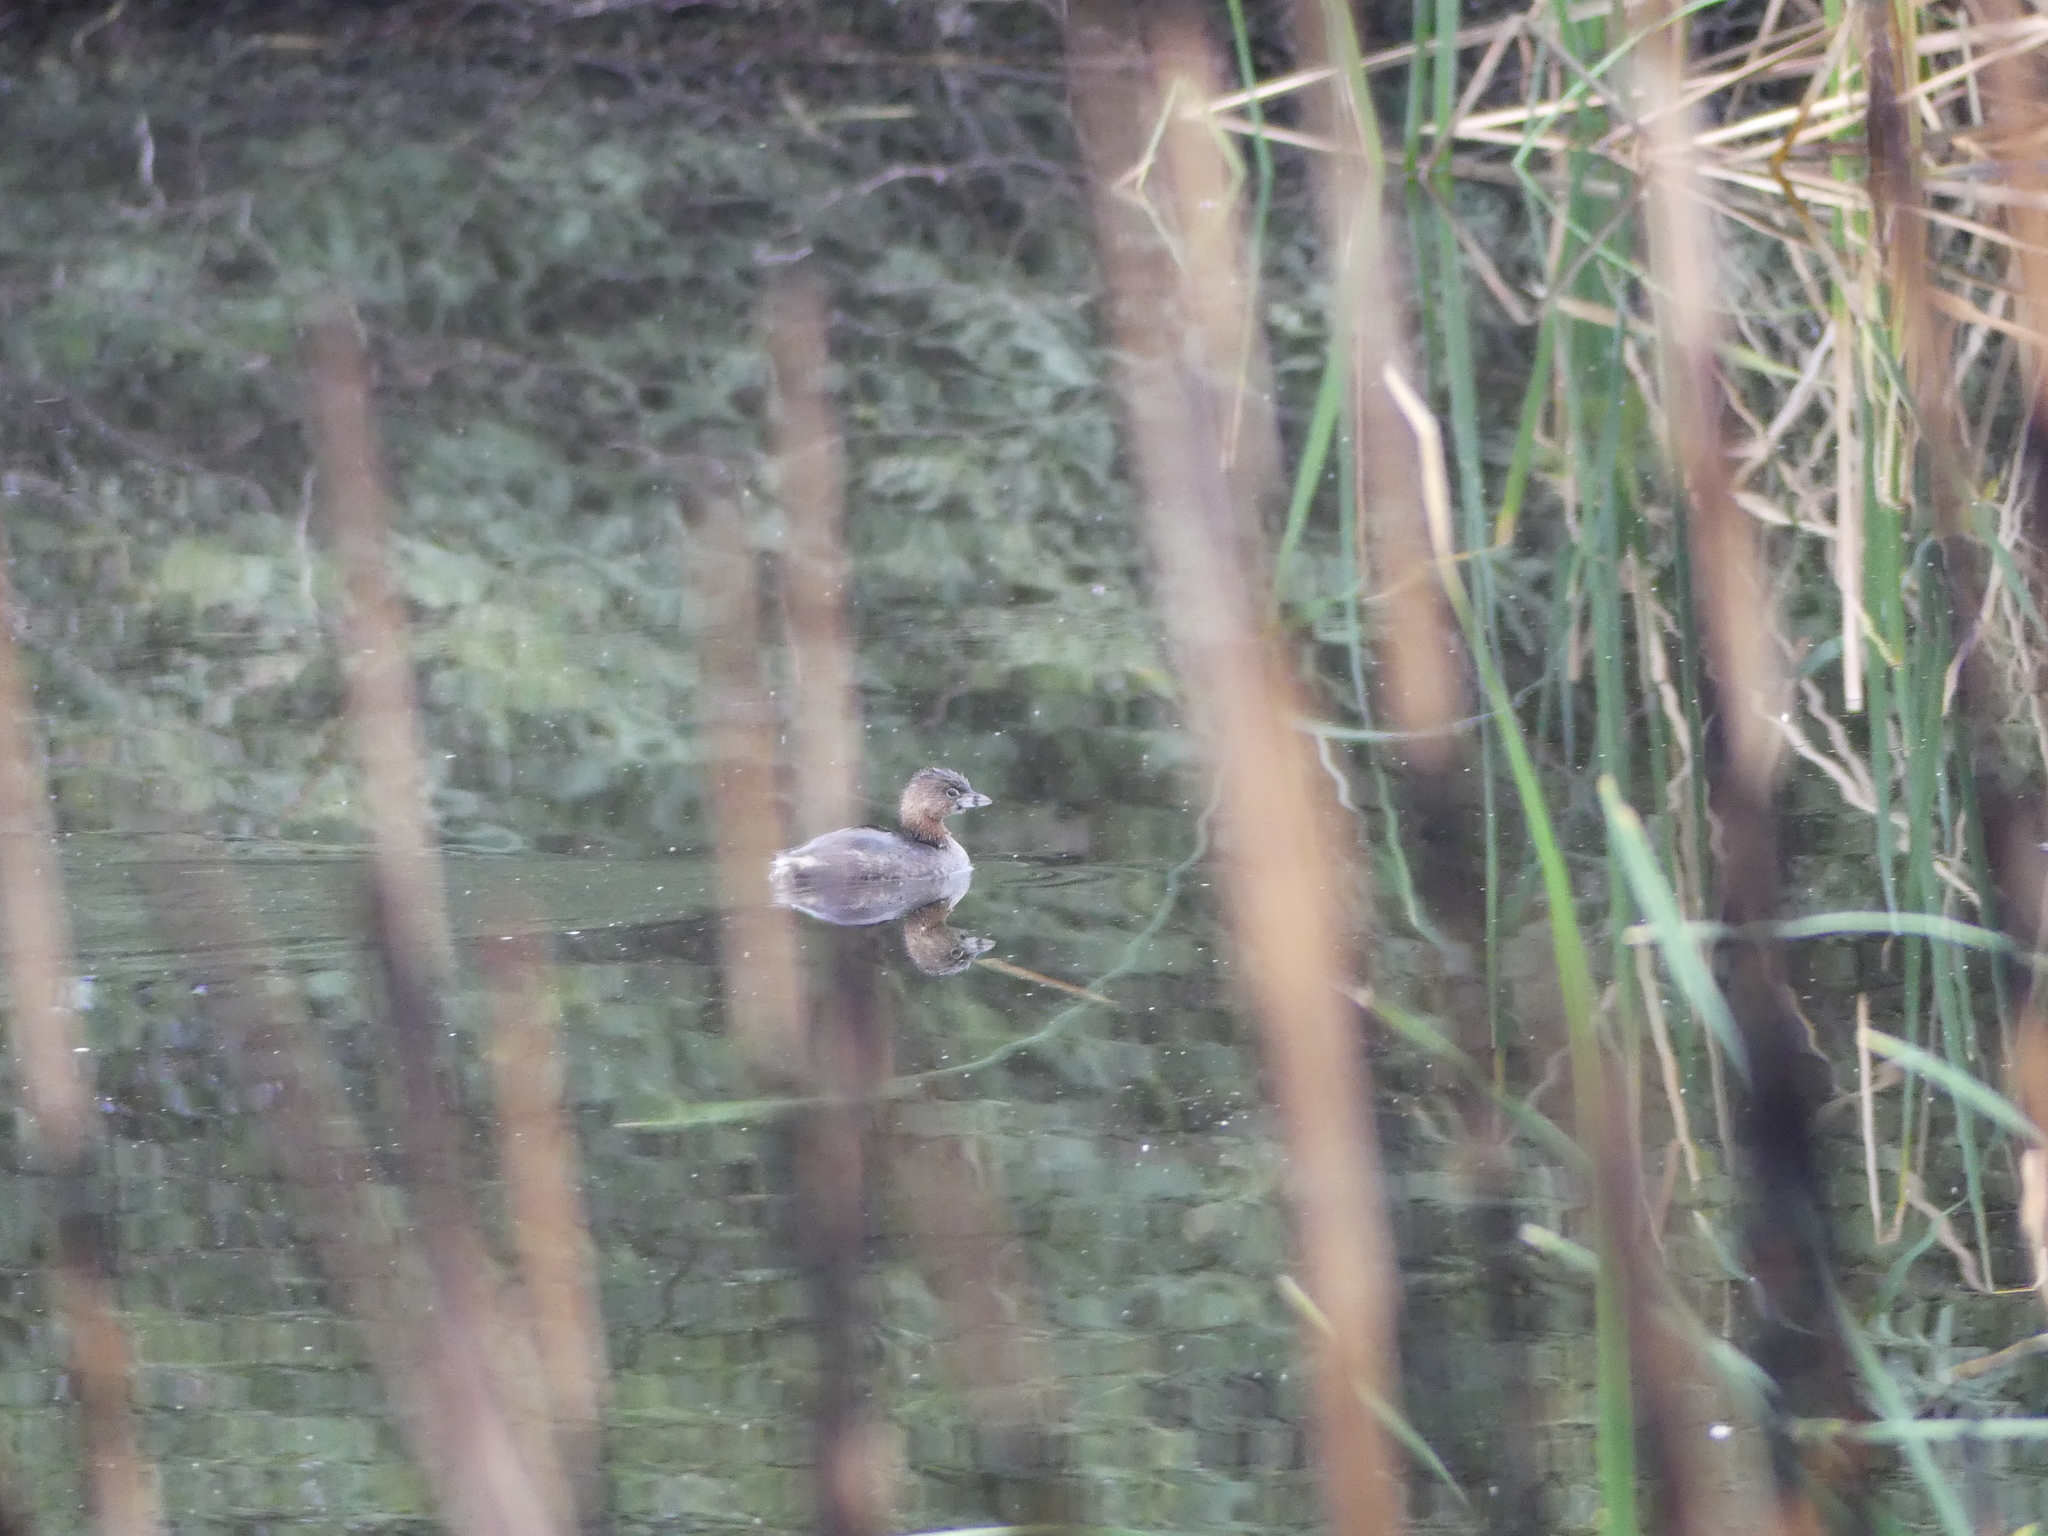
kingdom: Animalia
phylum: Chordata
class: Aves
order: Podicipediformes
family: Podicipedidae
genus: Podilymbus
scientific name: Podilymbus podiceps
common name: Pied-billed grebe
